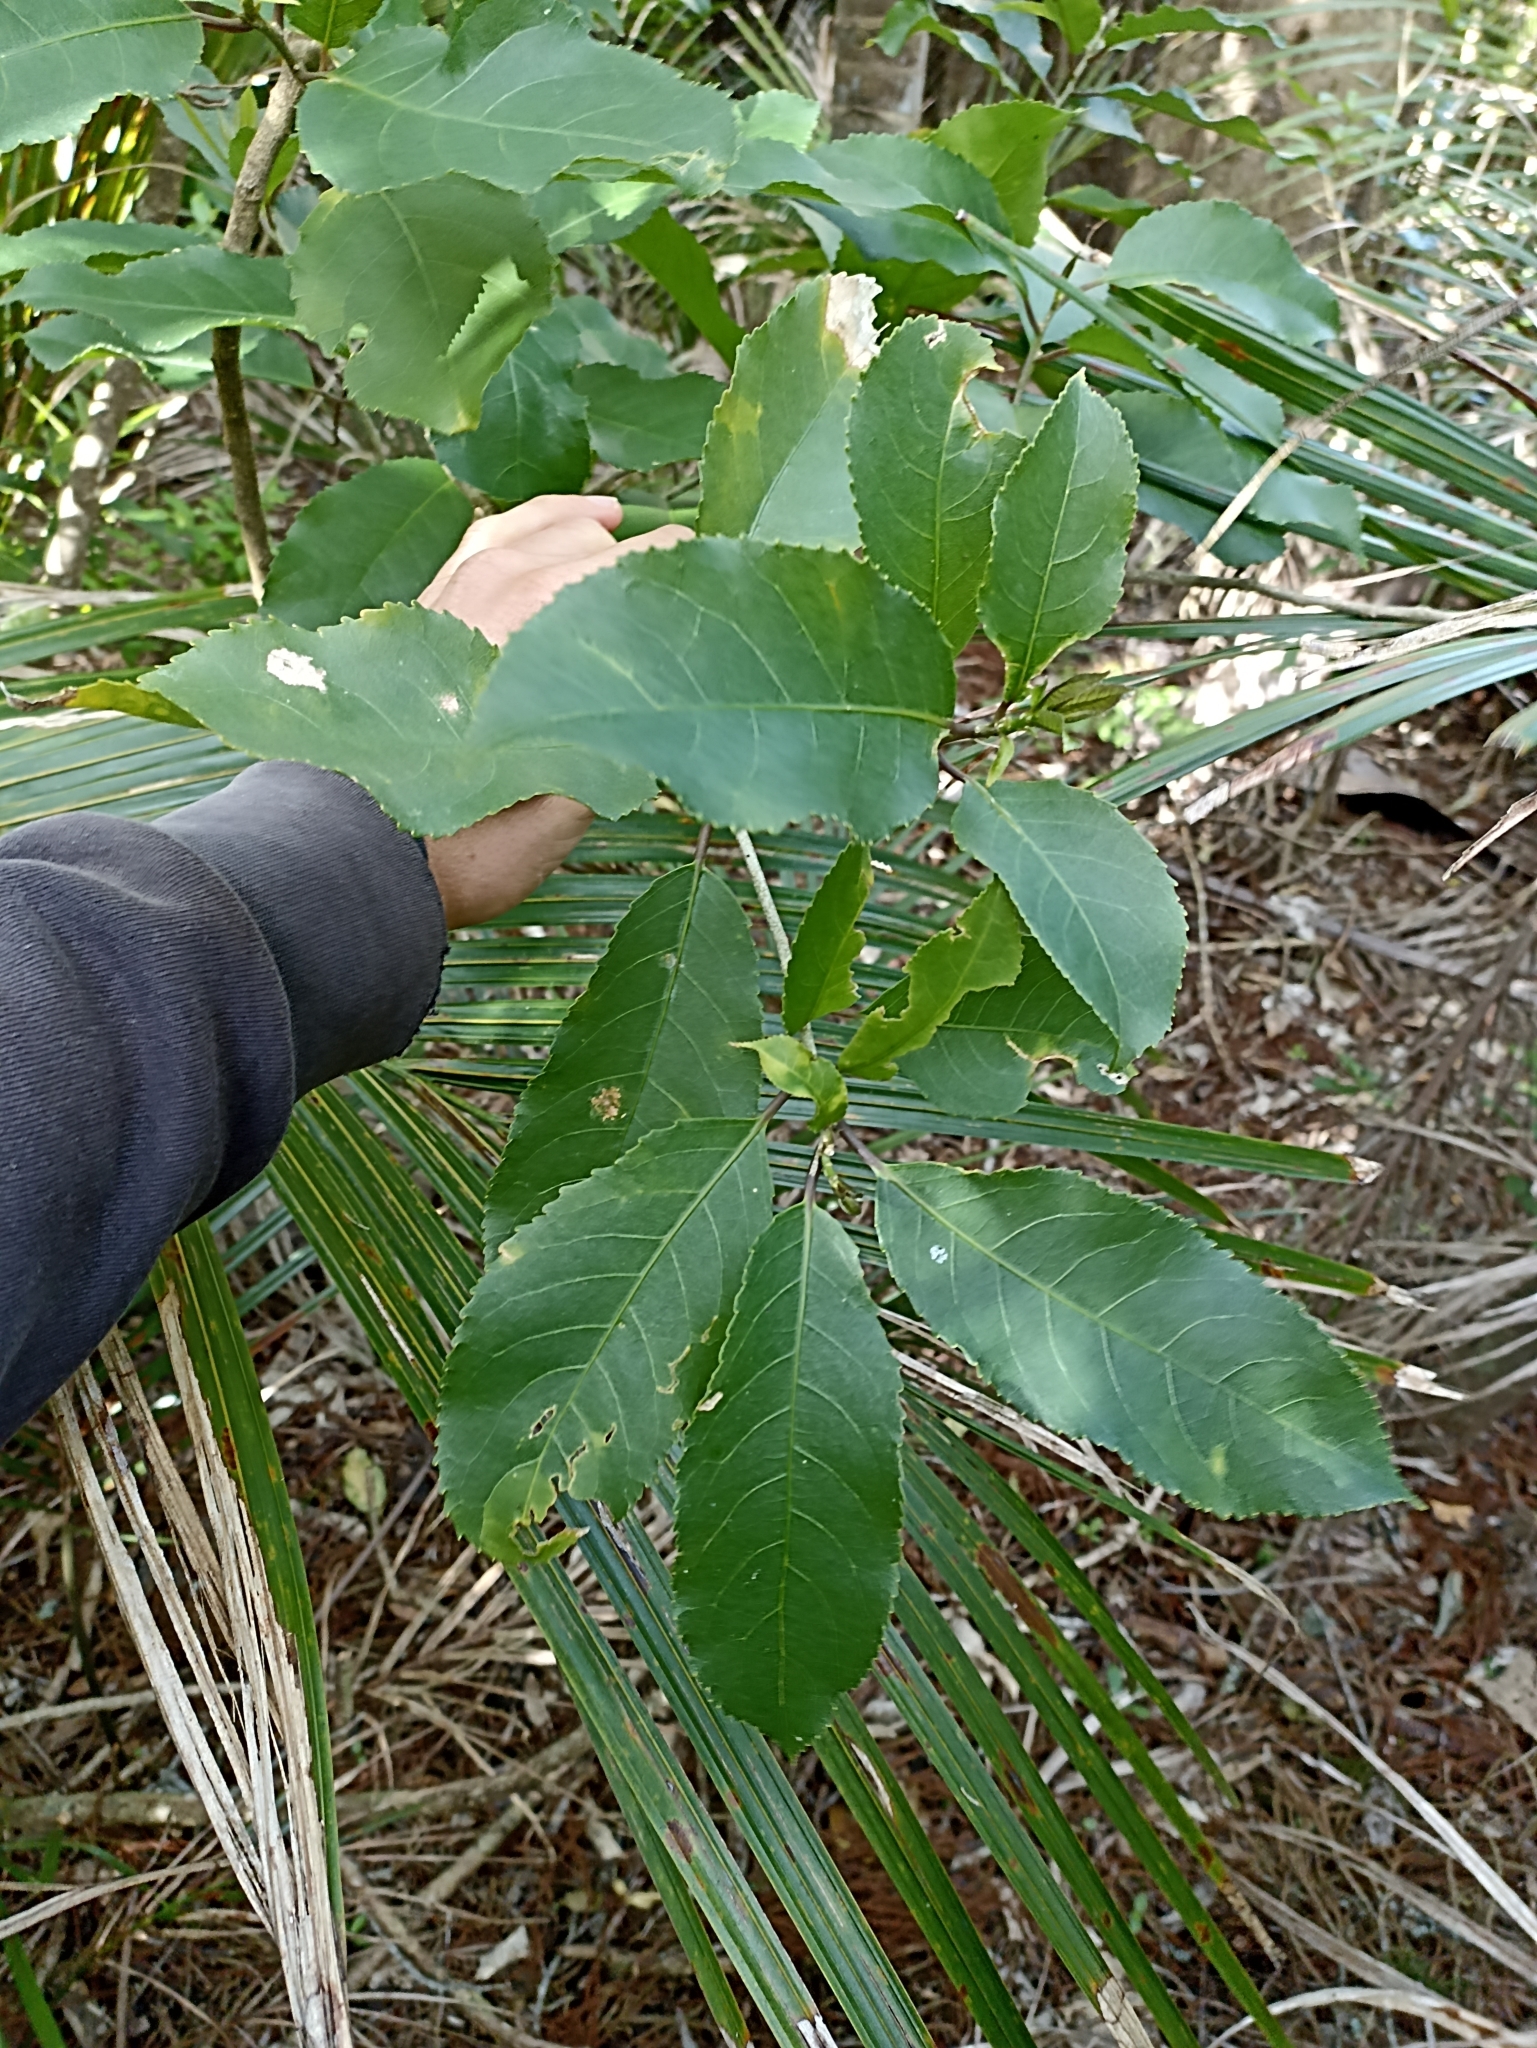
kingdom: Plantae
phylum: Tracheophyta
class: Magnoliopsida
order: Malpighiales
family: Violaceae
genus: Melicytus
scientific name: Melicytus ramiflorus
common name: Mahoe
